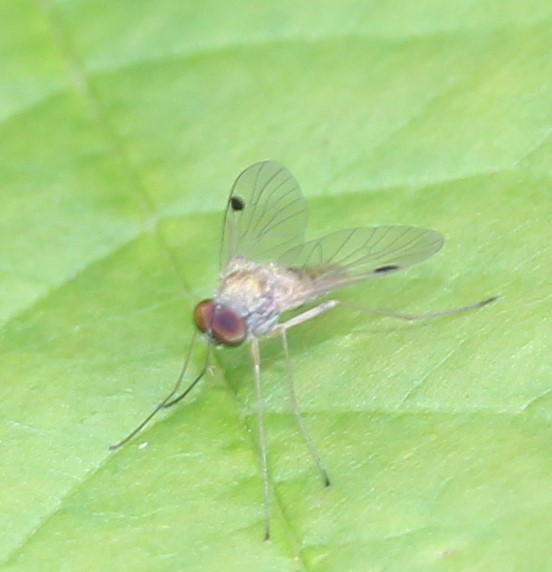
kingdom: Animalia
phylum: Arthropoda
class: Insecta
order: Diptera
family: Rhagionidae
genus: Chrysopilus
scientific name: Chrysopilus modestus
